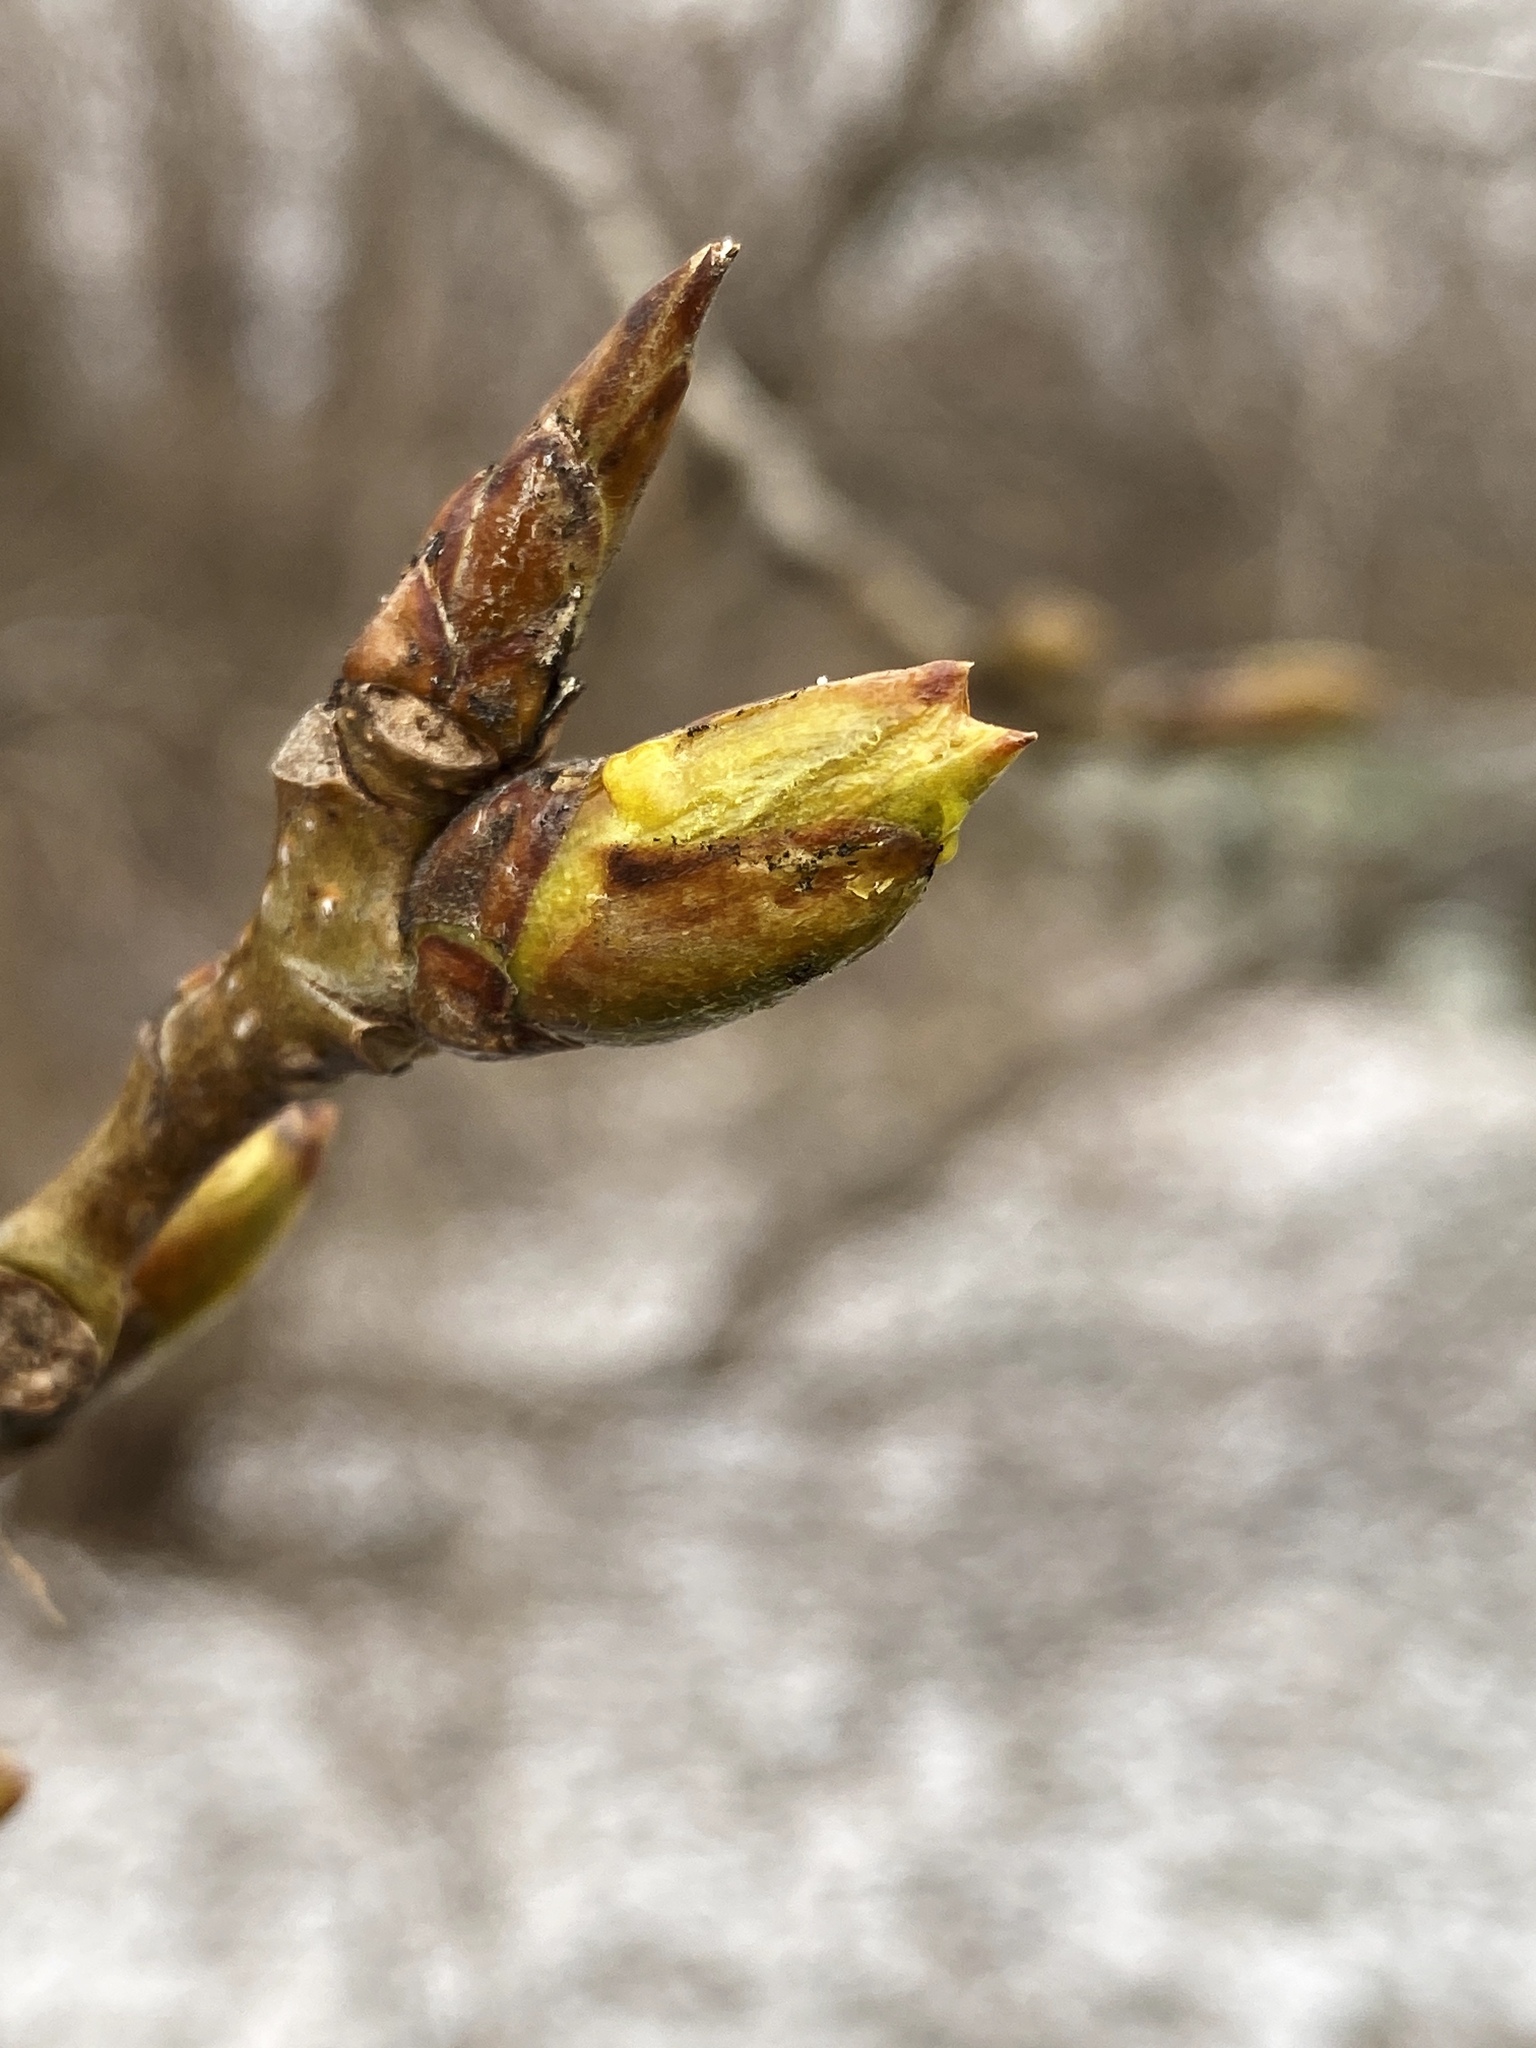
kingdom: Plantae
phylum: Tracheophyta
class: Magnoliopsida
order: Malpighiales
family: Salicaceae
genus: Populus
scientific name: Populus deltoides
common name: Eastern cottonwood
